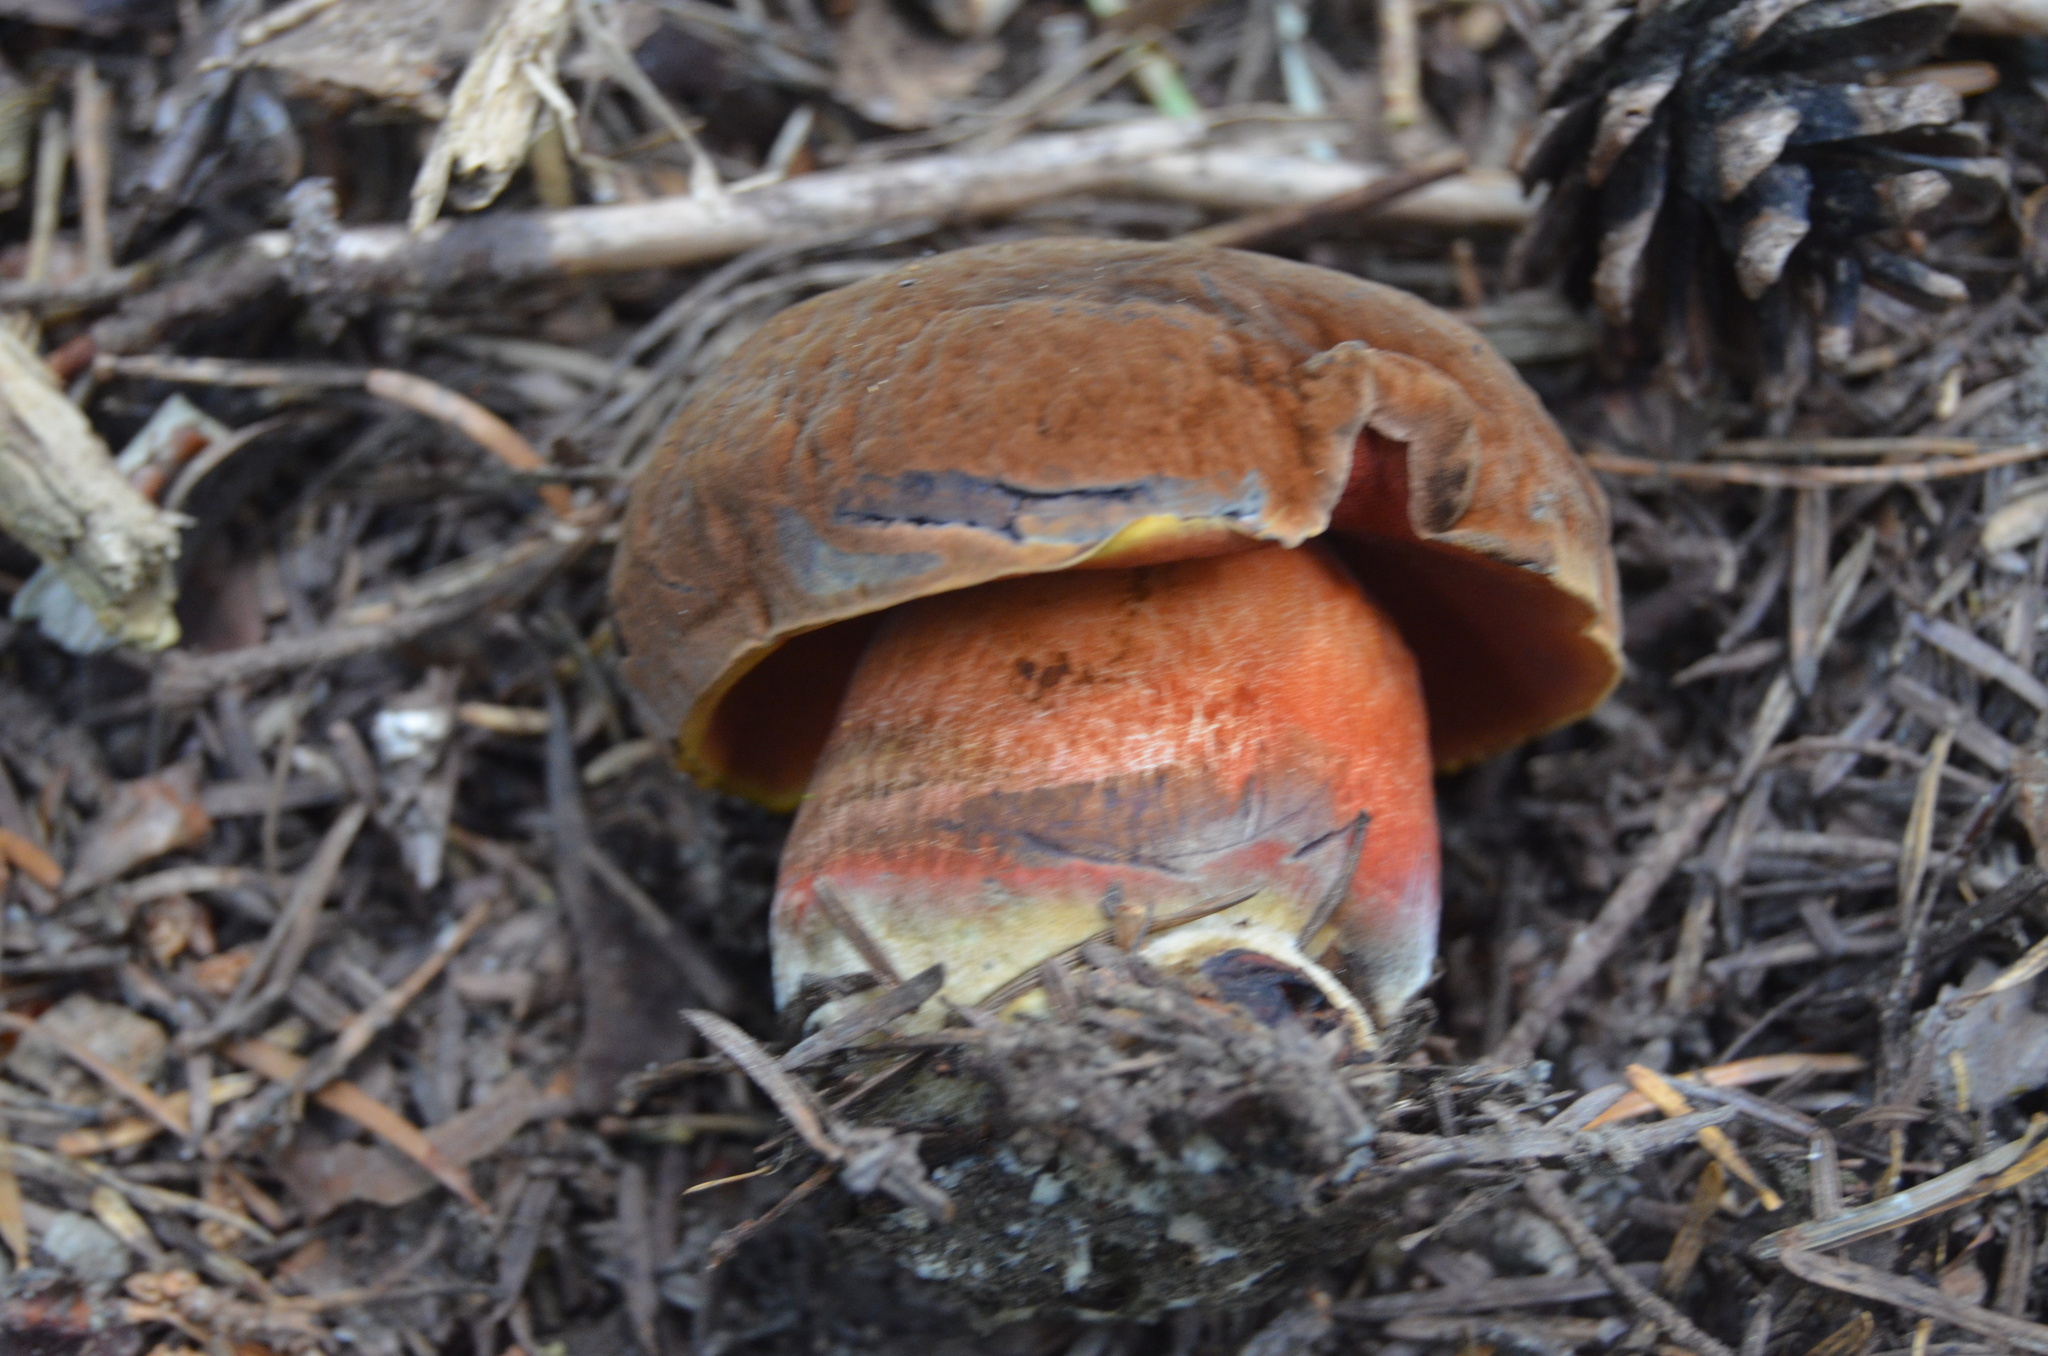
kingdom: Fungi
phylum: Basidiomycota
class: Agaricomycetes
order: Boletales
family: Boletaceae
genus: Neoboletus
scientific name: Neoboletus luridiformis
